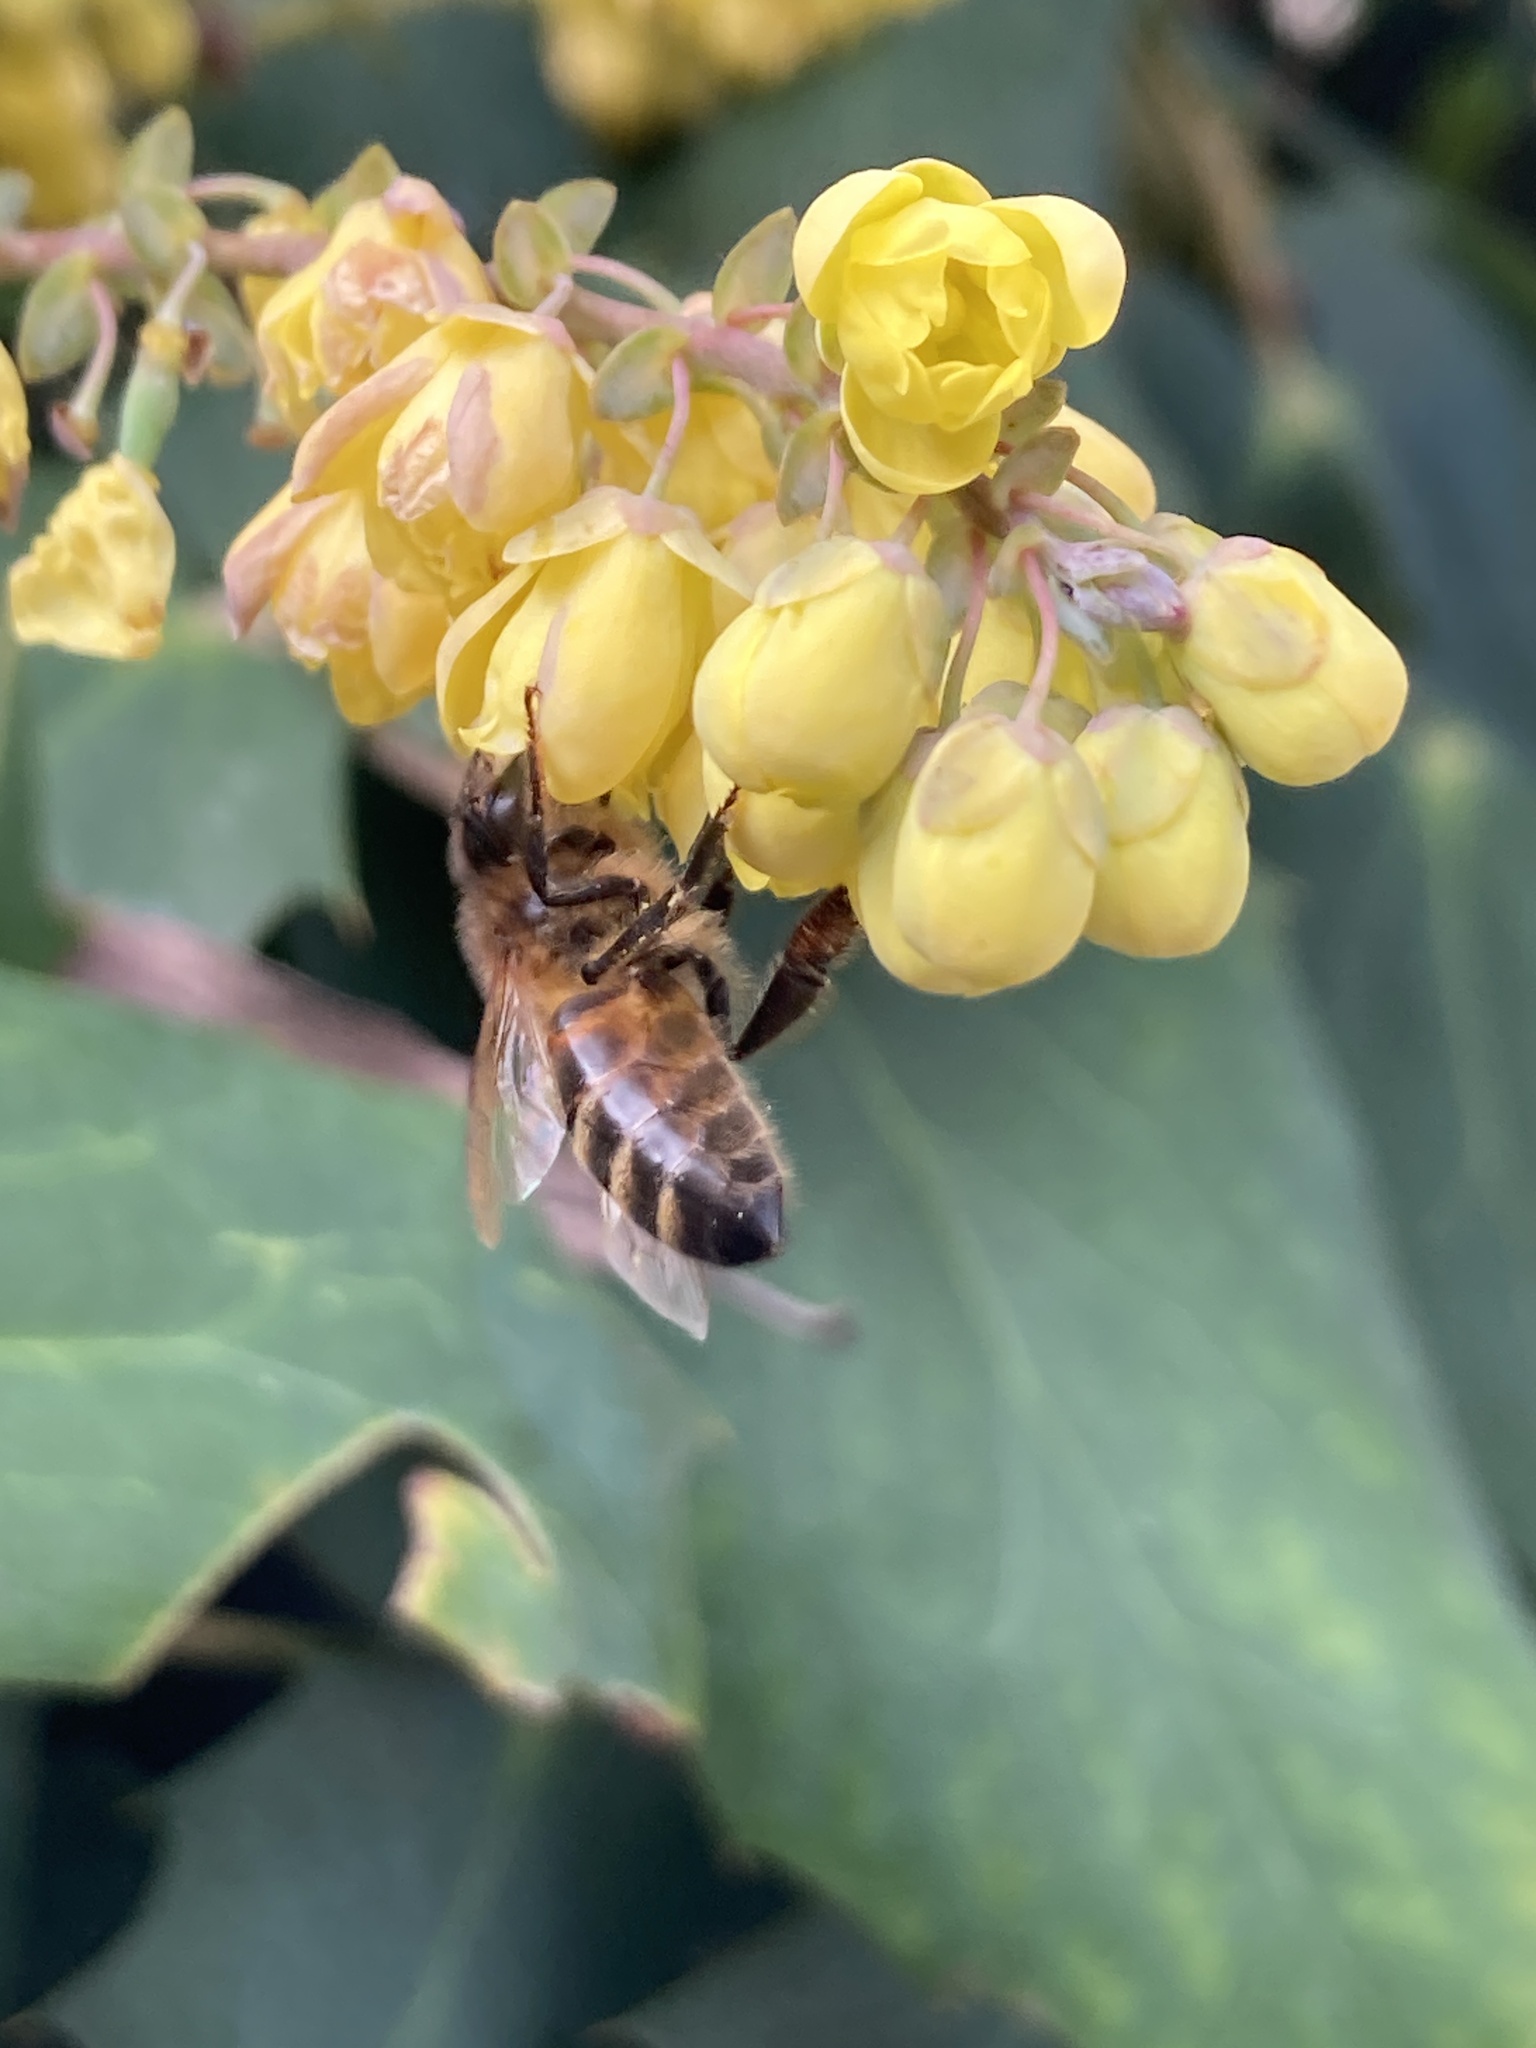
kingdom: Animalia
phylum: Arthropoda
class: Insecta
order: Hymenoptera
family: Apidae
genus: Apis
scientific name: Apis mellifera
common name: Honey bee
